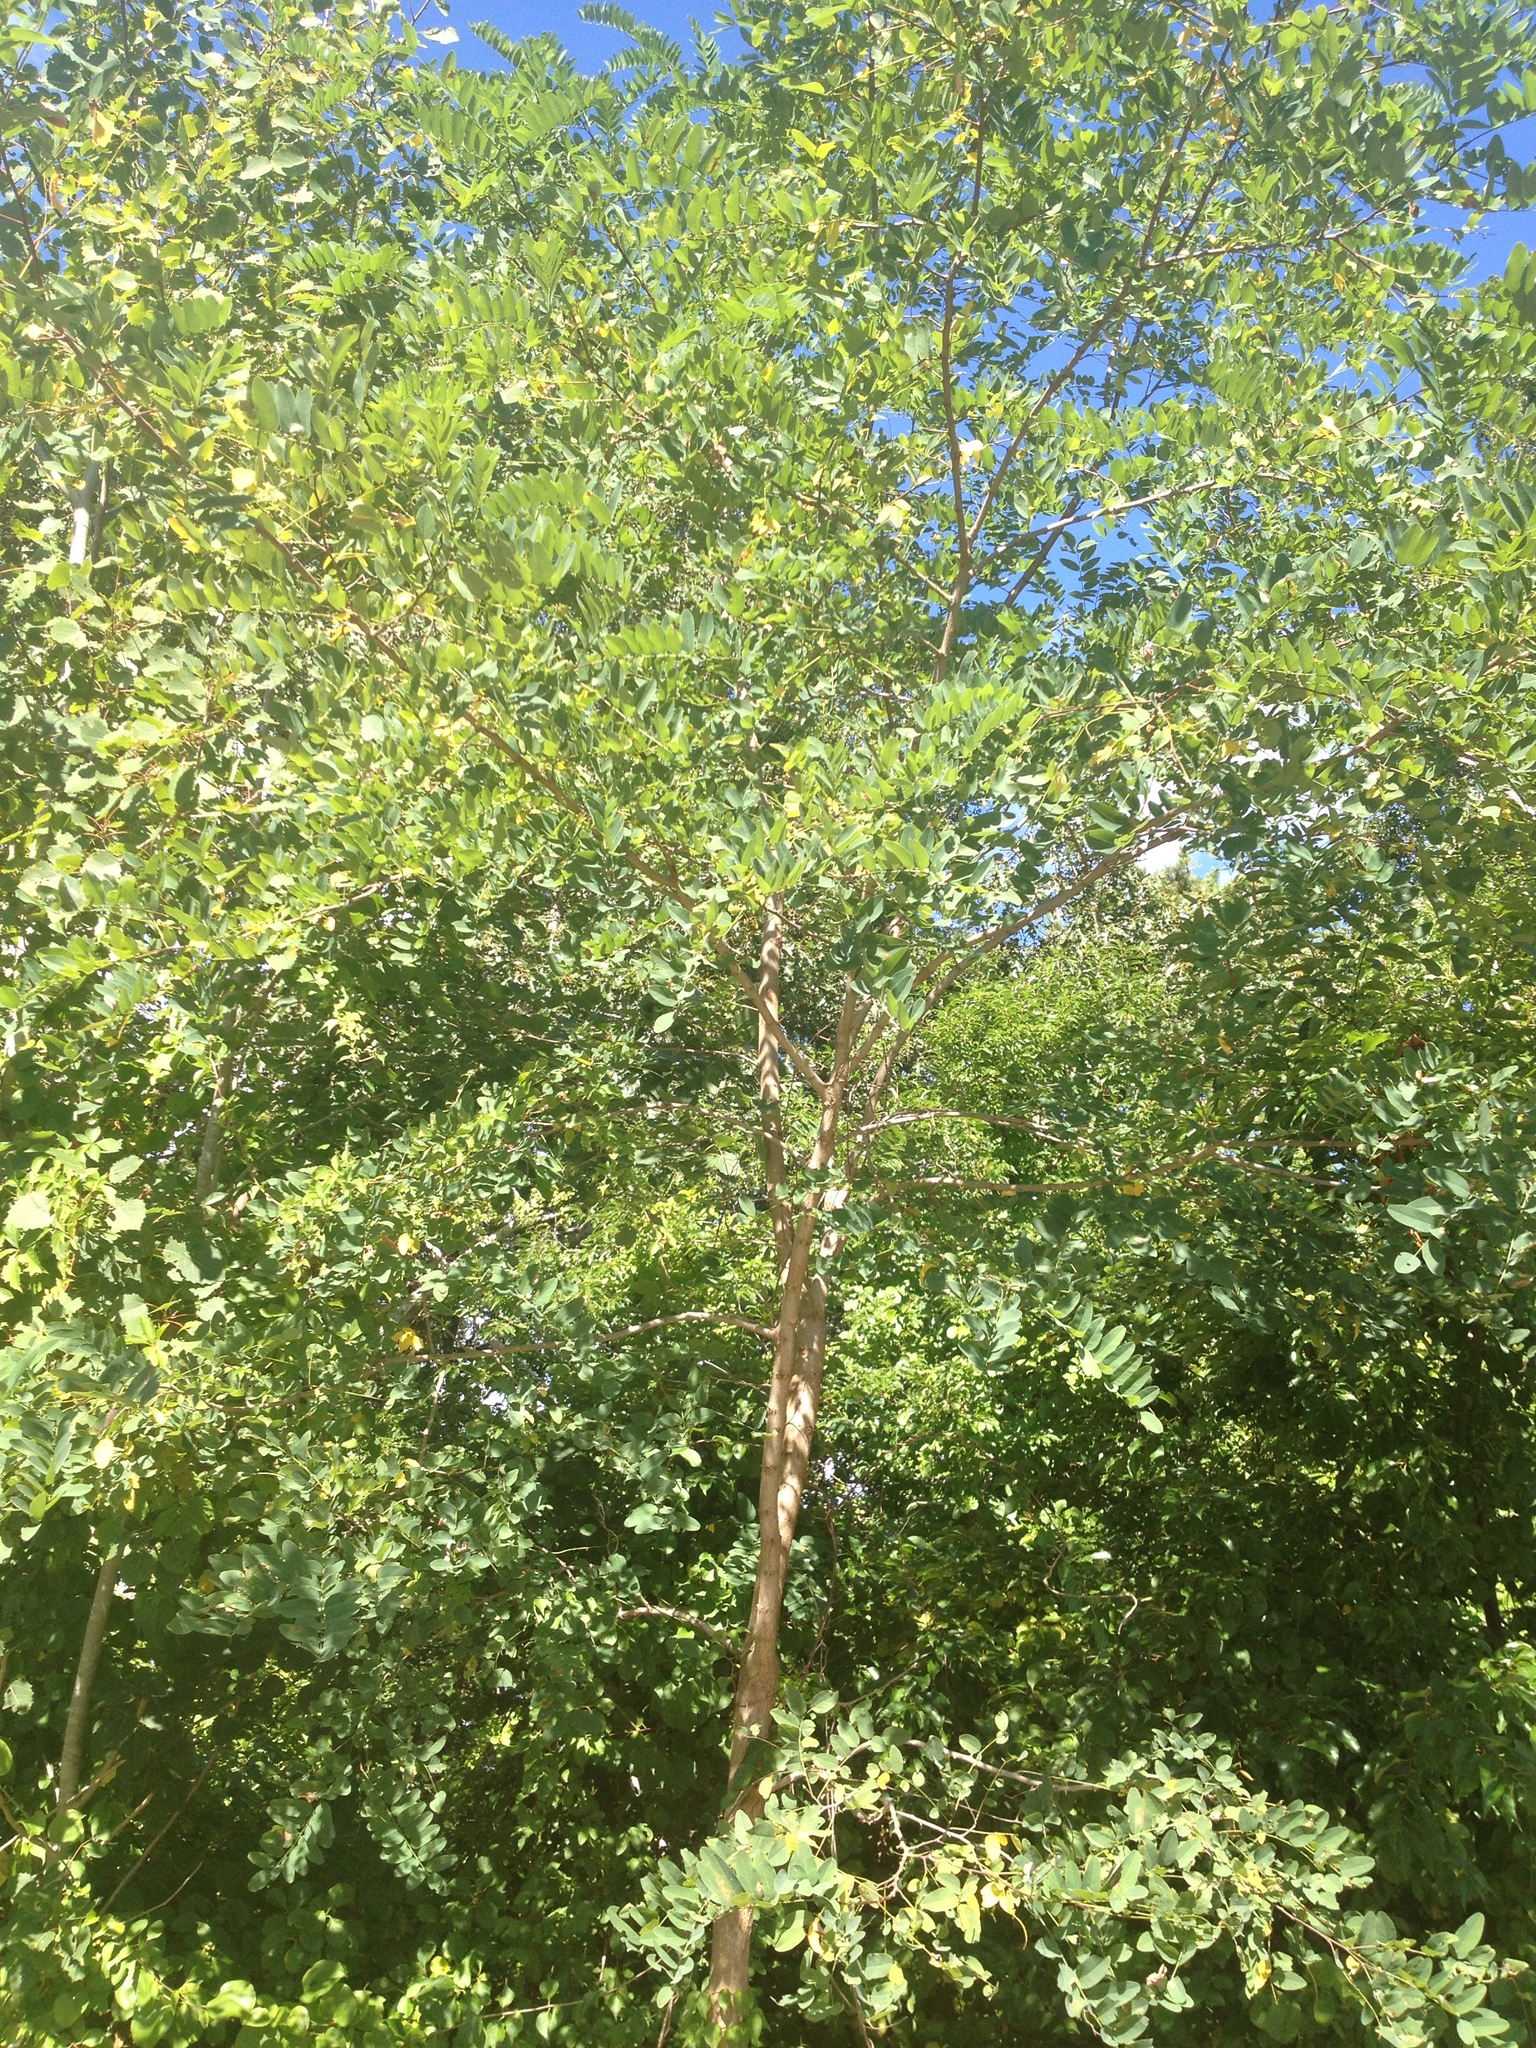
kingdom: Plantae
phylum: Tracheophyta
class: Magnoliopsida
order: Fabales
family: Fabaceae
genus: Robinia
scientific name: Robinia pseudoacacia
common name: Black locust
